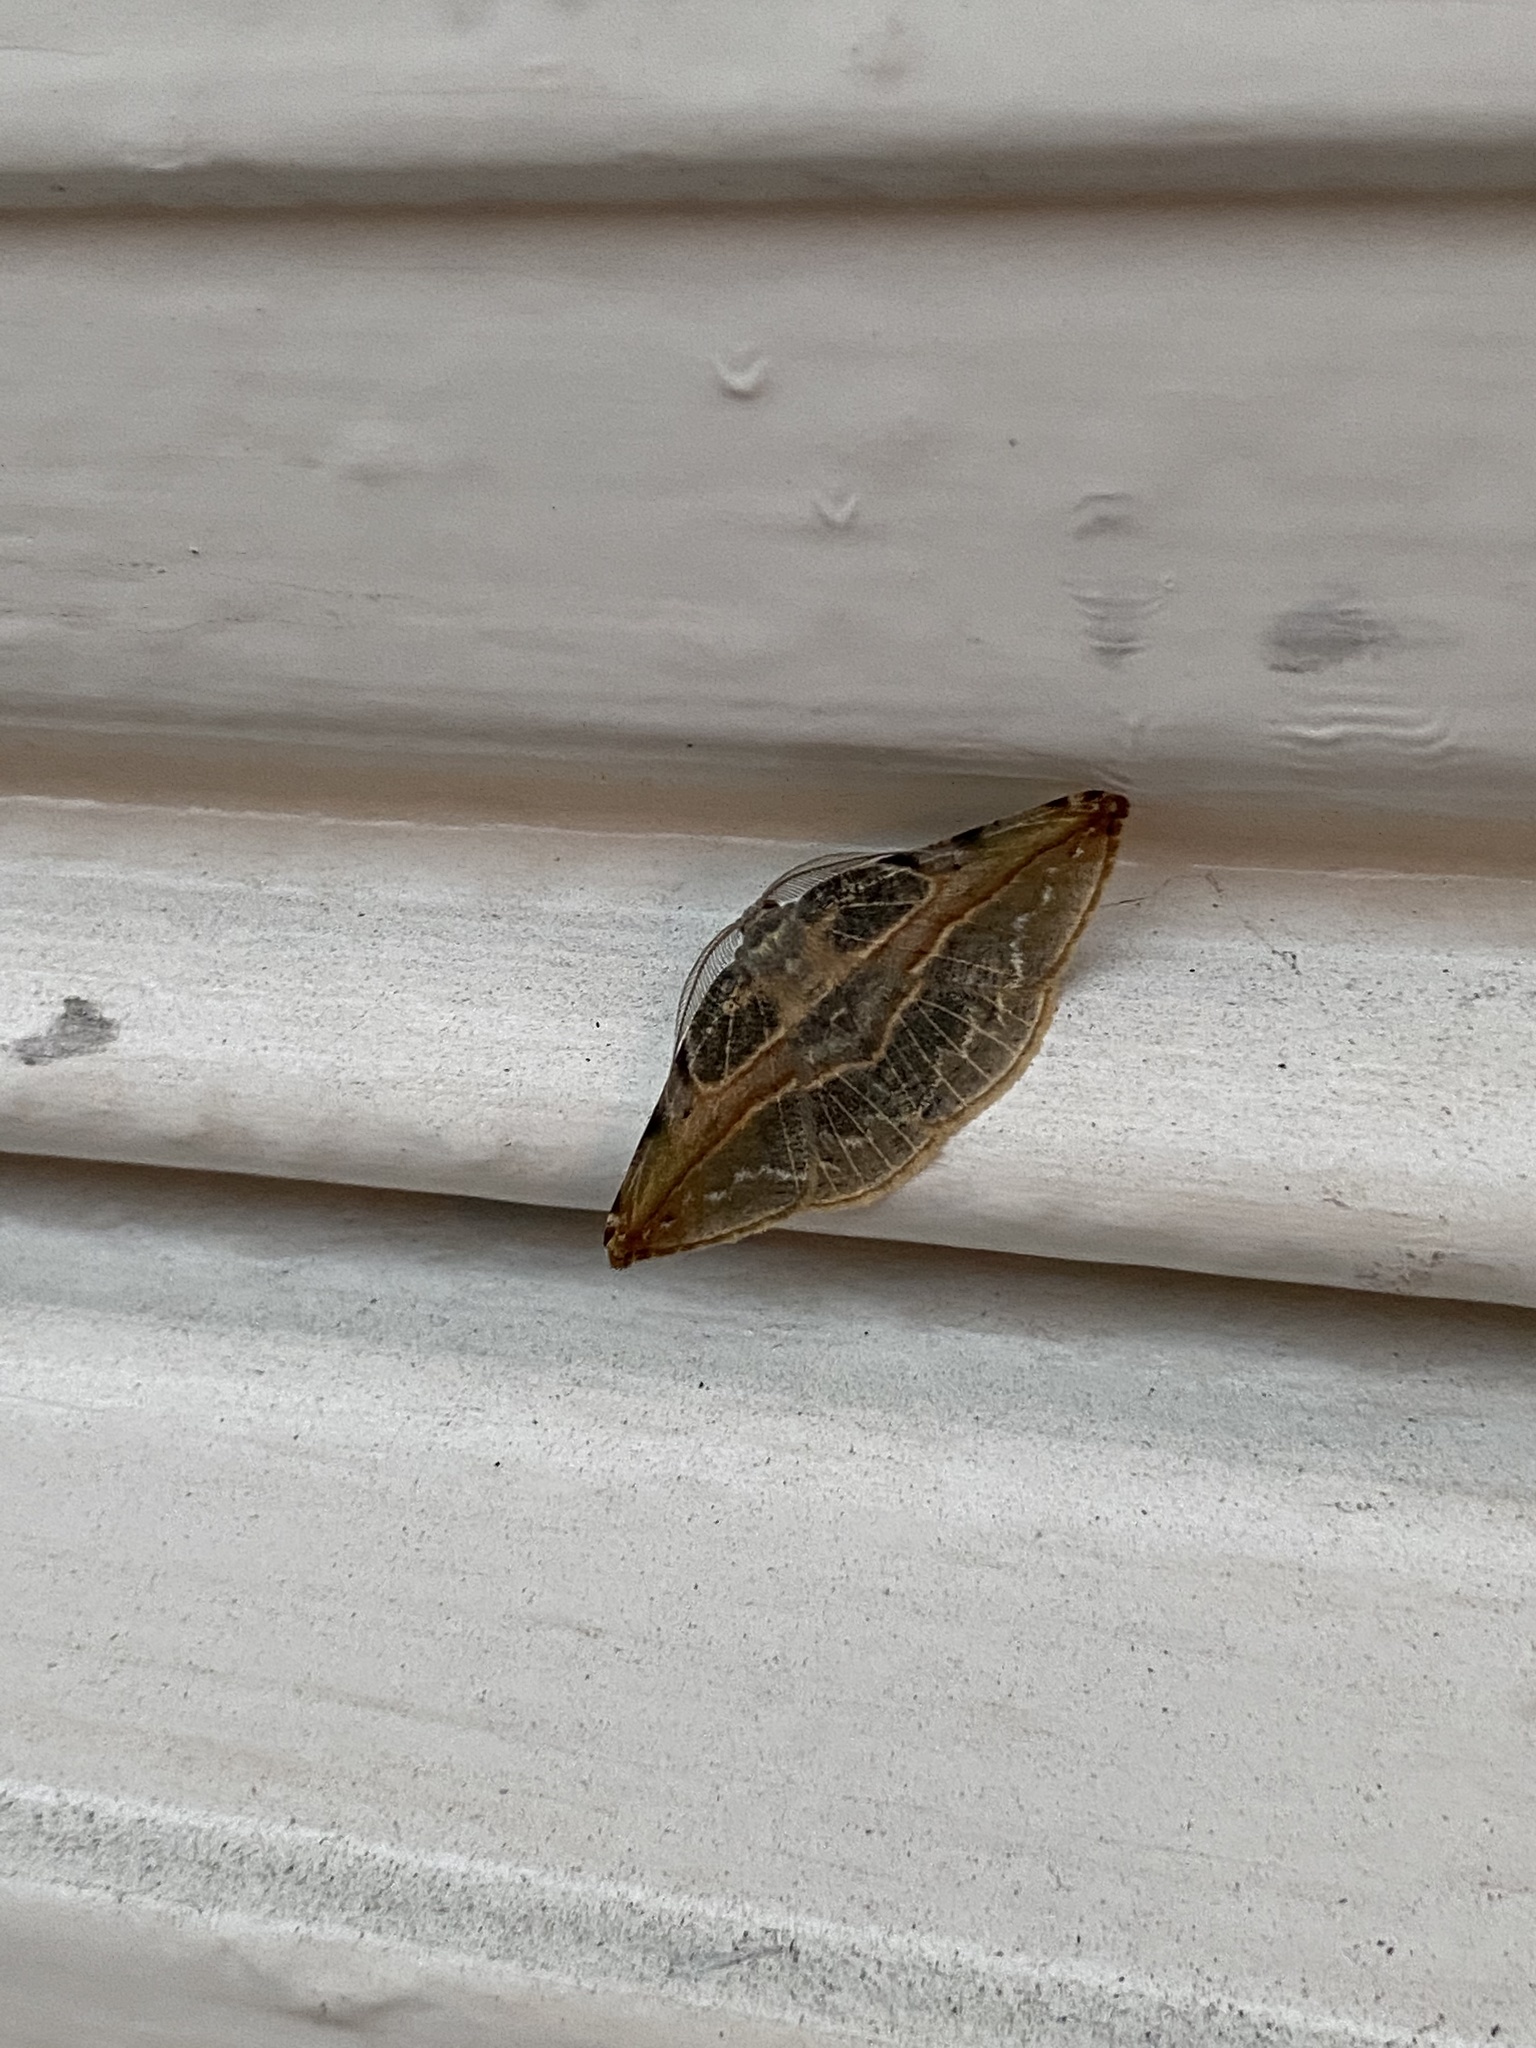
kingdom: Animalia
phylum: Arthropoda
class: Insecta
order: Lepidoptera
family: Geometridae
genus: Eusarca
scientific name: Eusarca minucia
